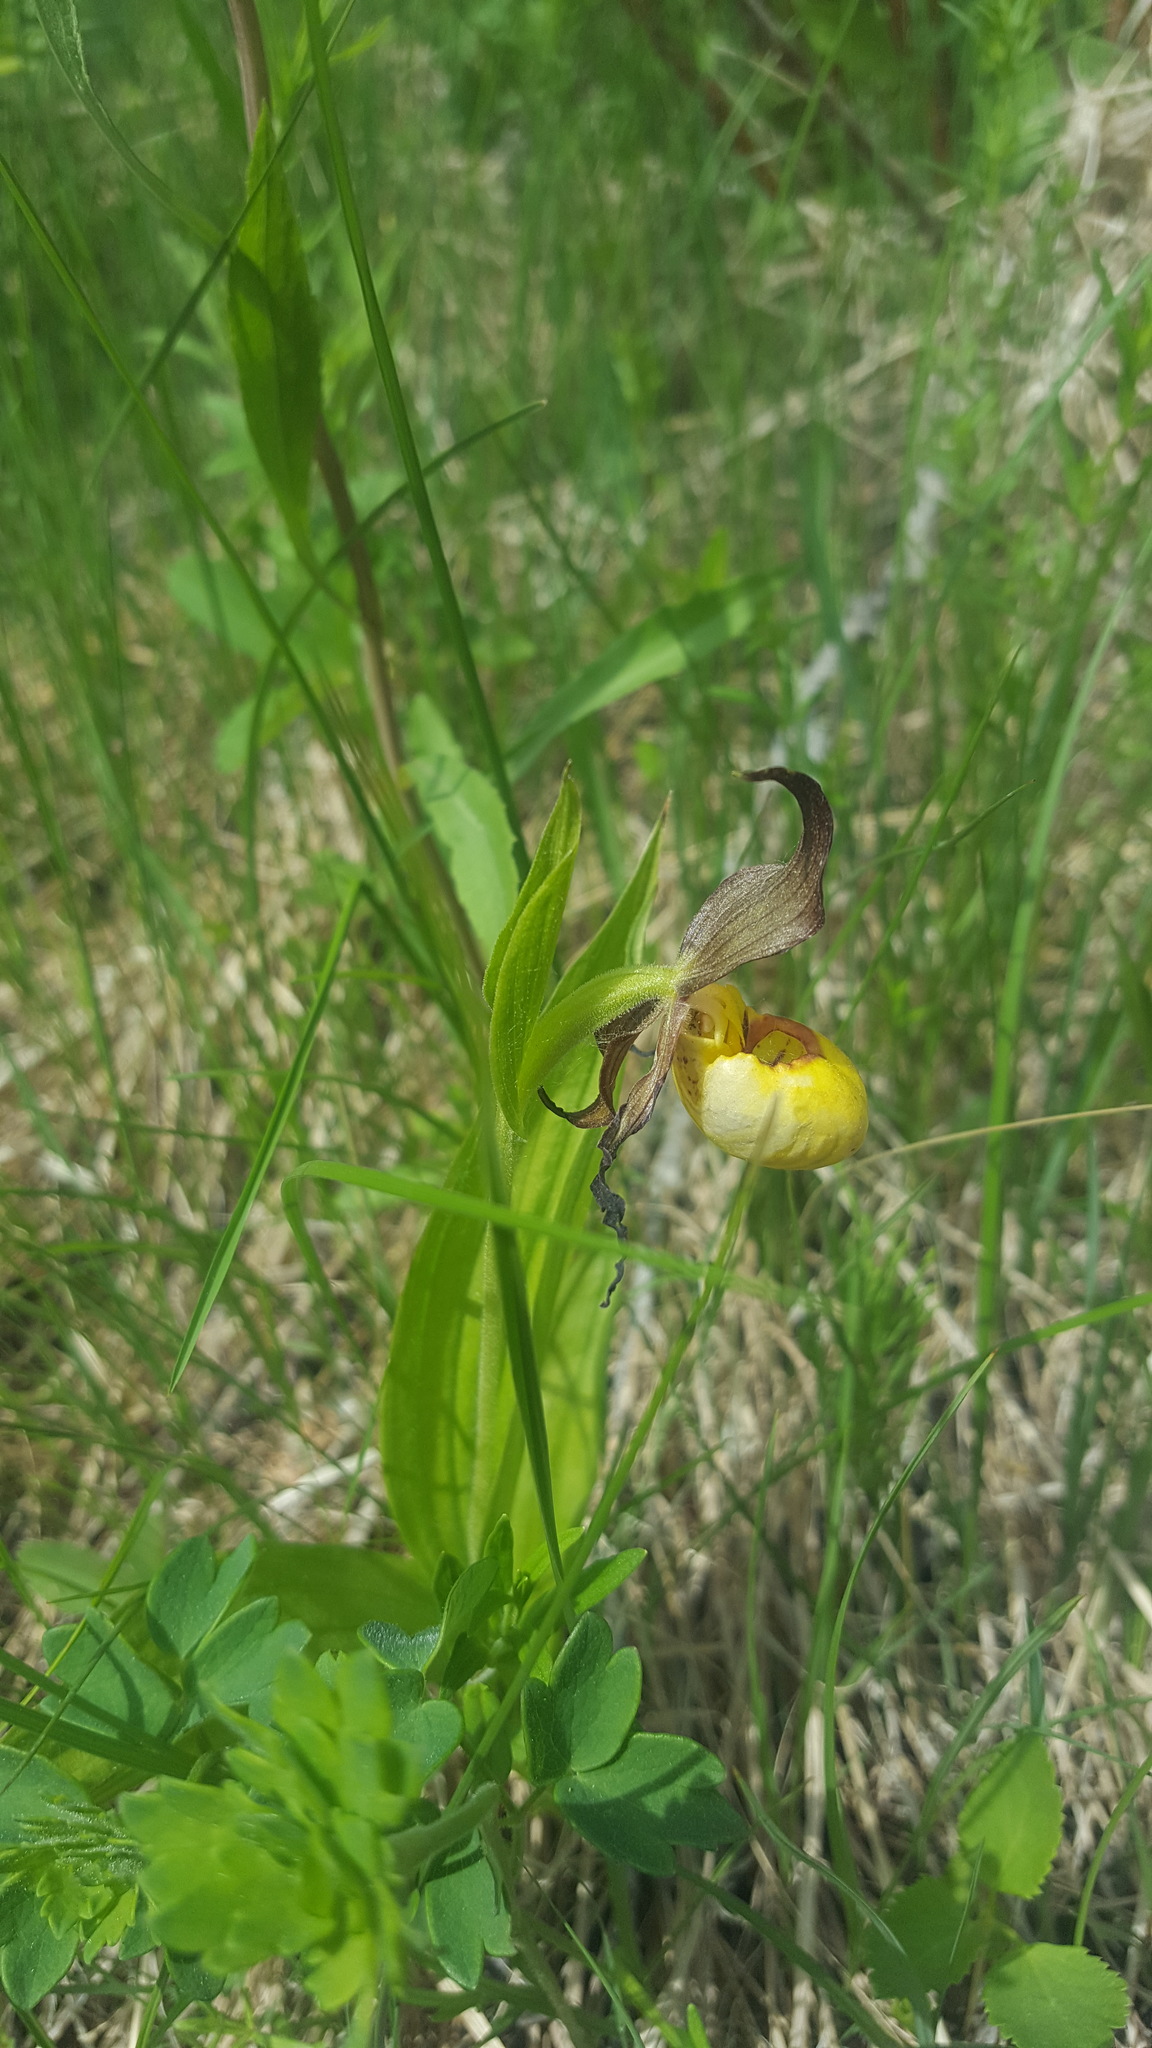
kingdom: Plantae
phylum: Tracheophyta
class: Liliopsida
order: Asparagales
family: Orchidaceae
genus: Cypripedium
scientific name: Cypripedium parviflorum
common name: American yellow lady's-slipper
